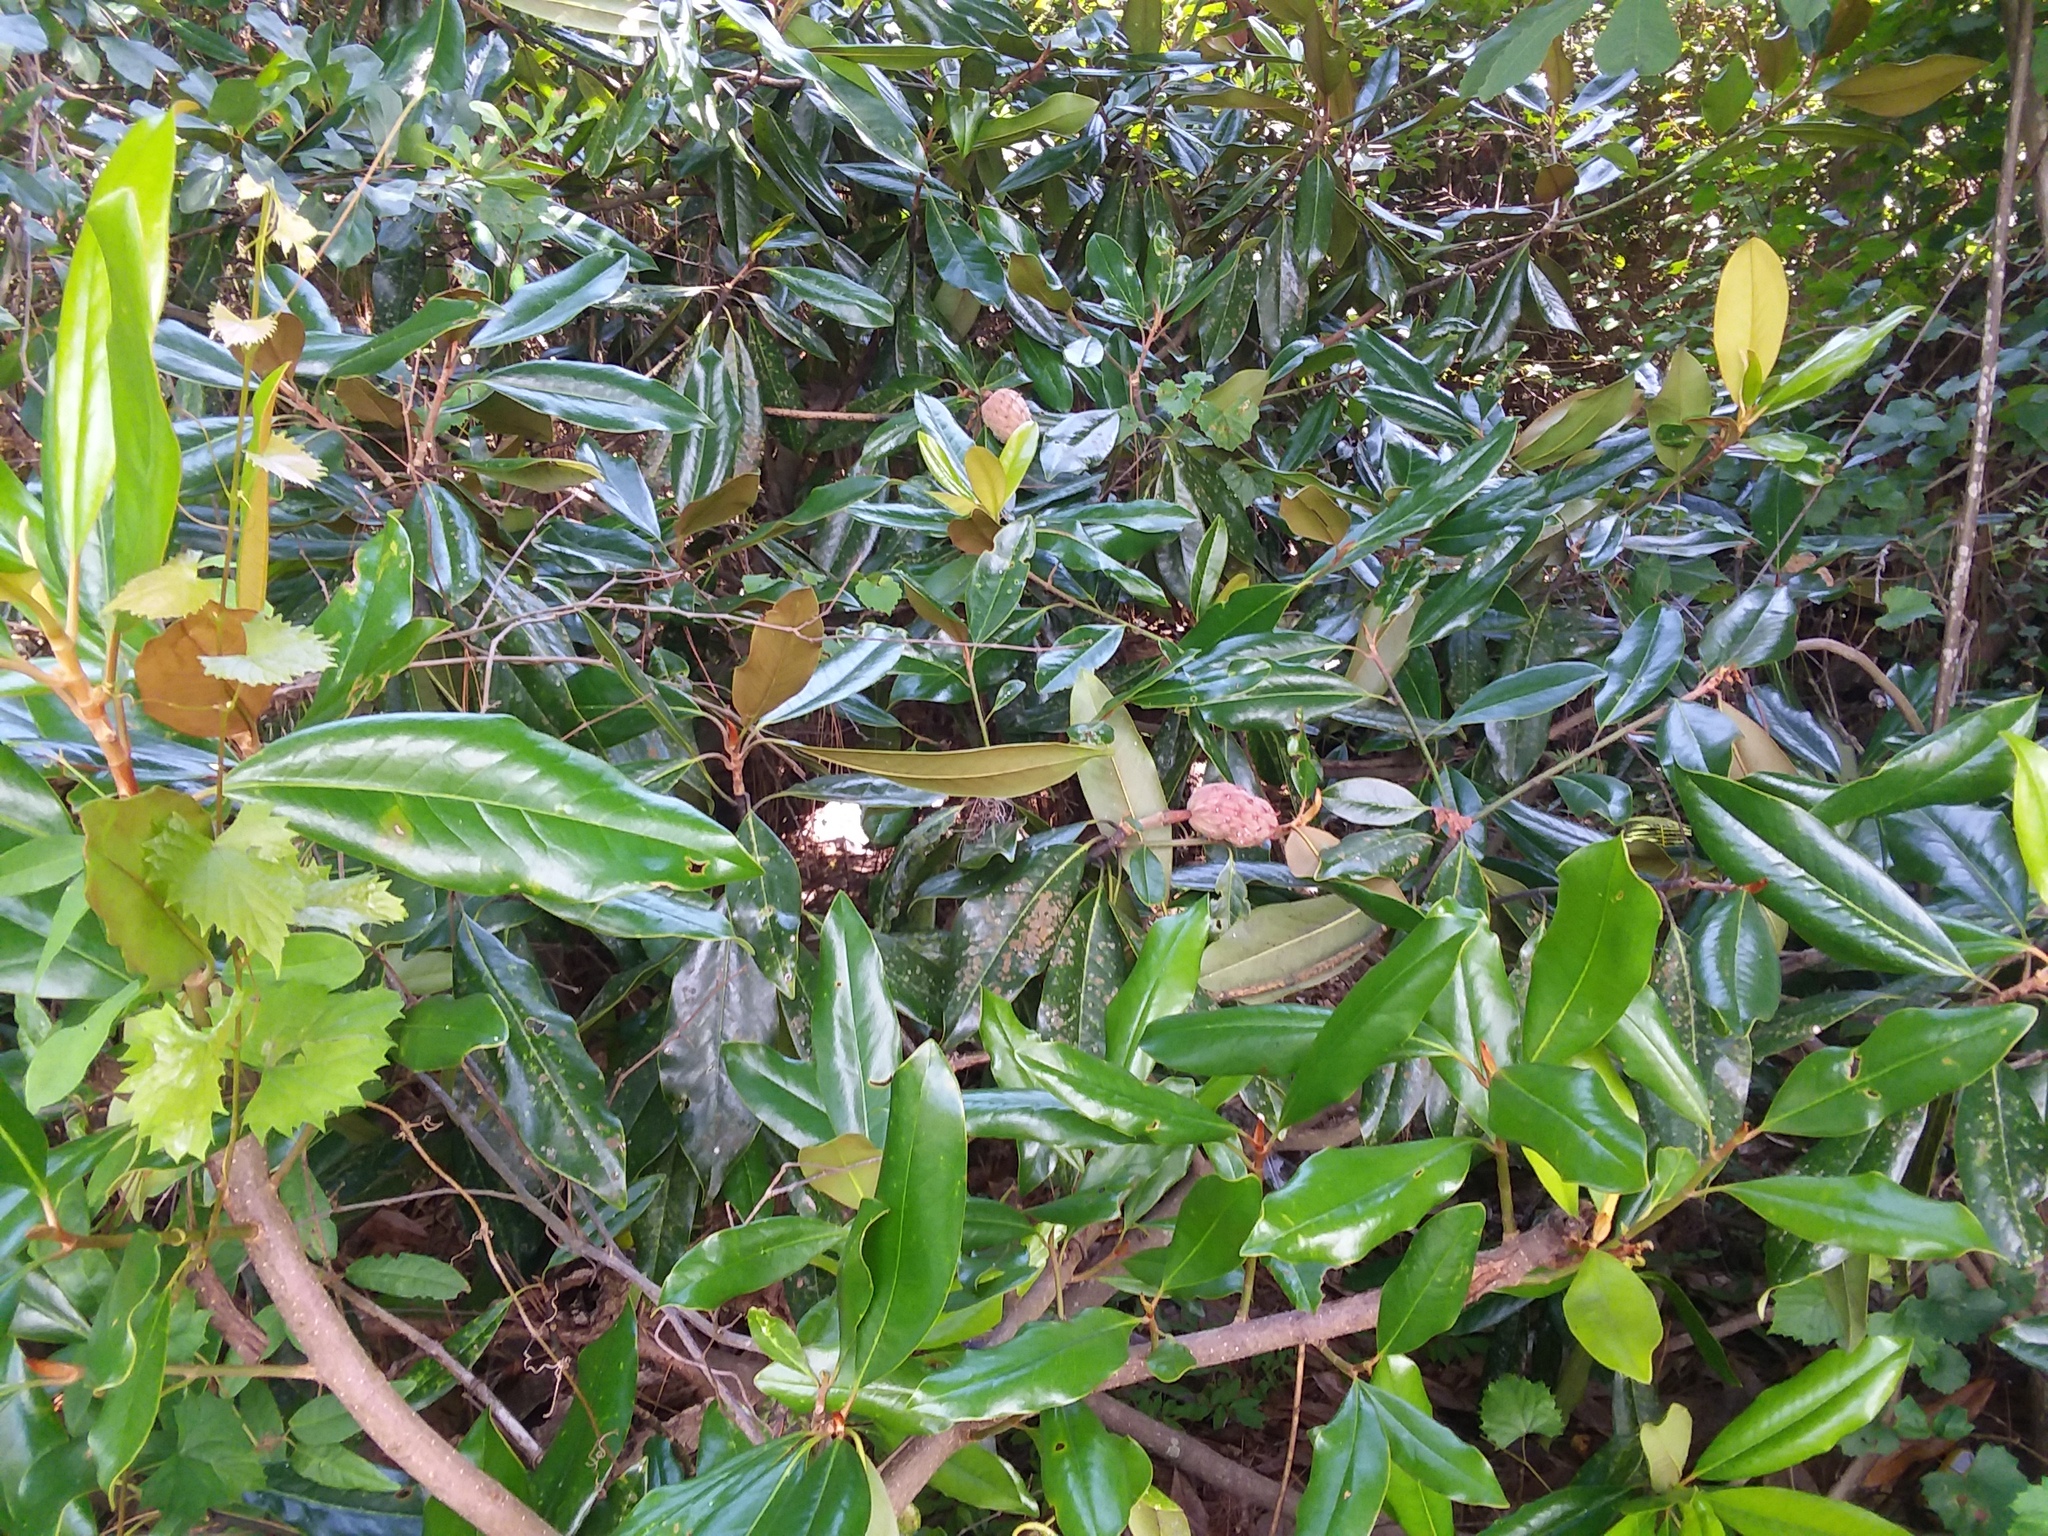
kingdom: Plantae
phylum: Tracheophyta
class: Magnoliopsida
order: Magnoliales
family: Magnoliaceae
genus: Magnolia
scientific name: Magnolia grandiflora
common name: Southern magnolia
